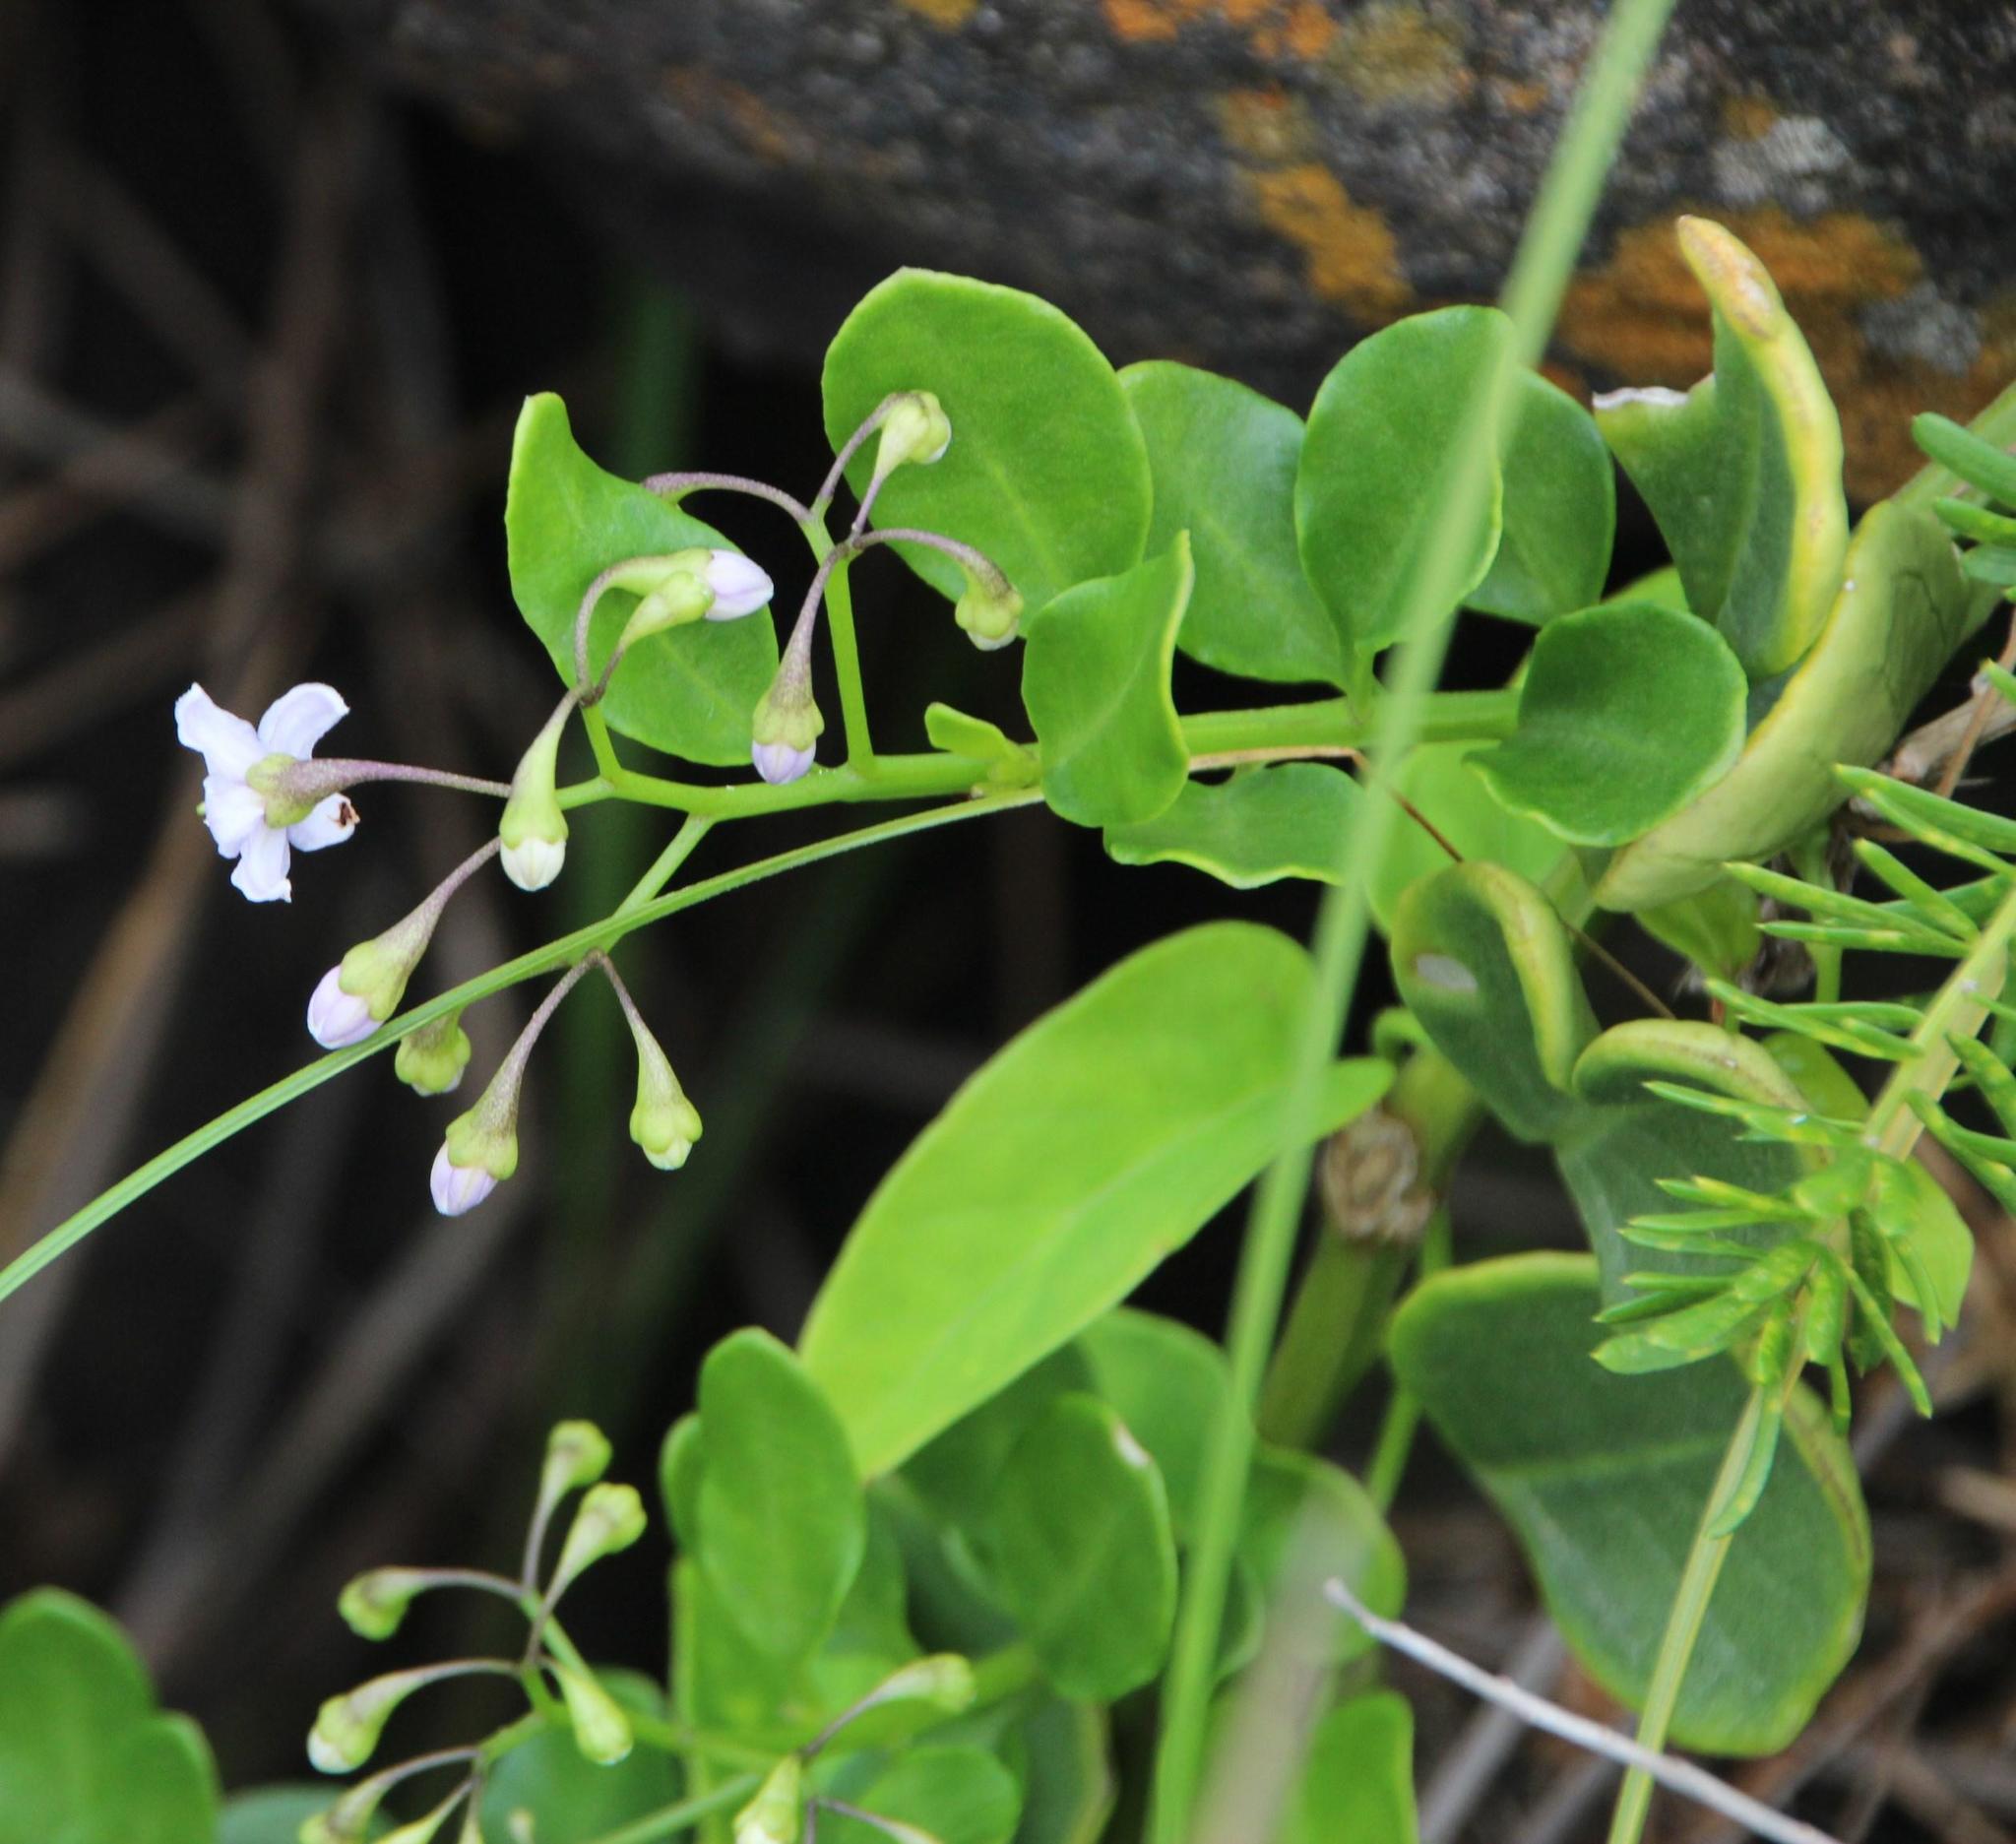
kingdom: Plantae
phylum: Tracheophyta
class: Magnoliopsida
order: Solanales
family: Solanaceae
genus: Solanum
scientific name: Solanum africanum
